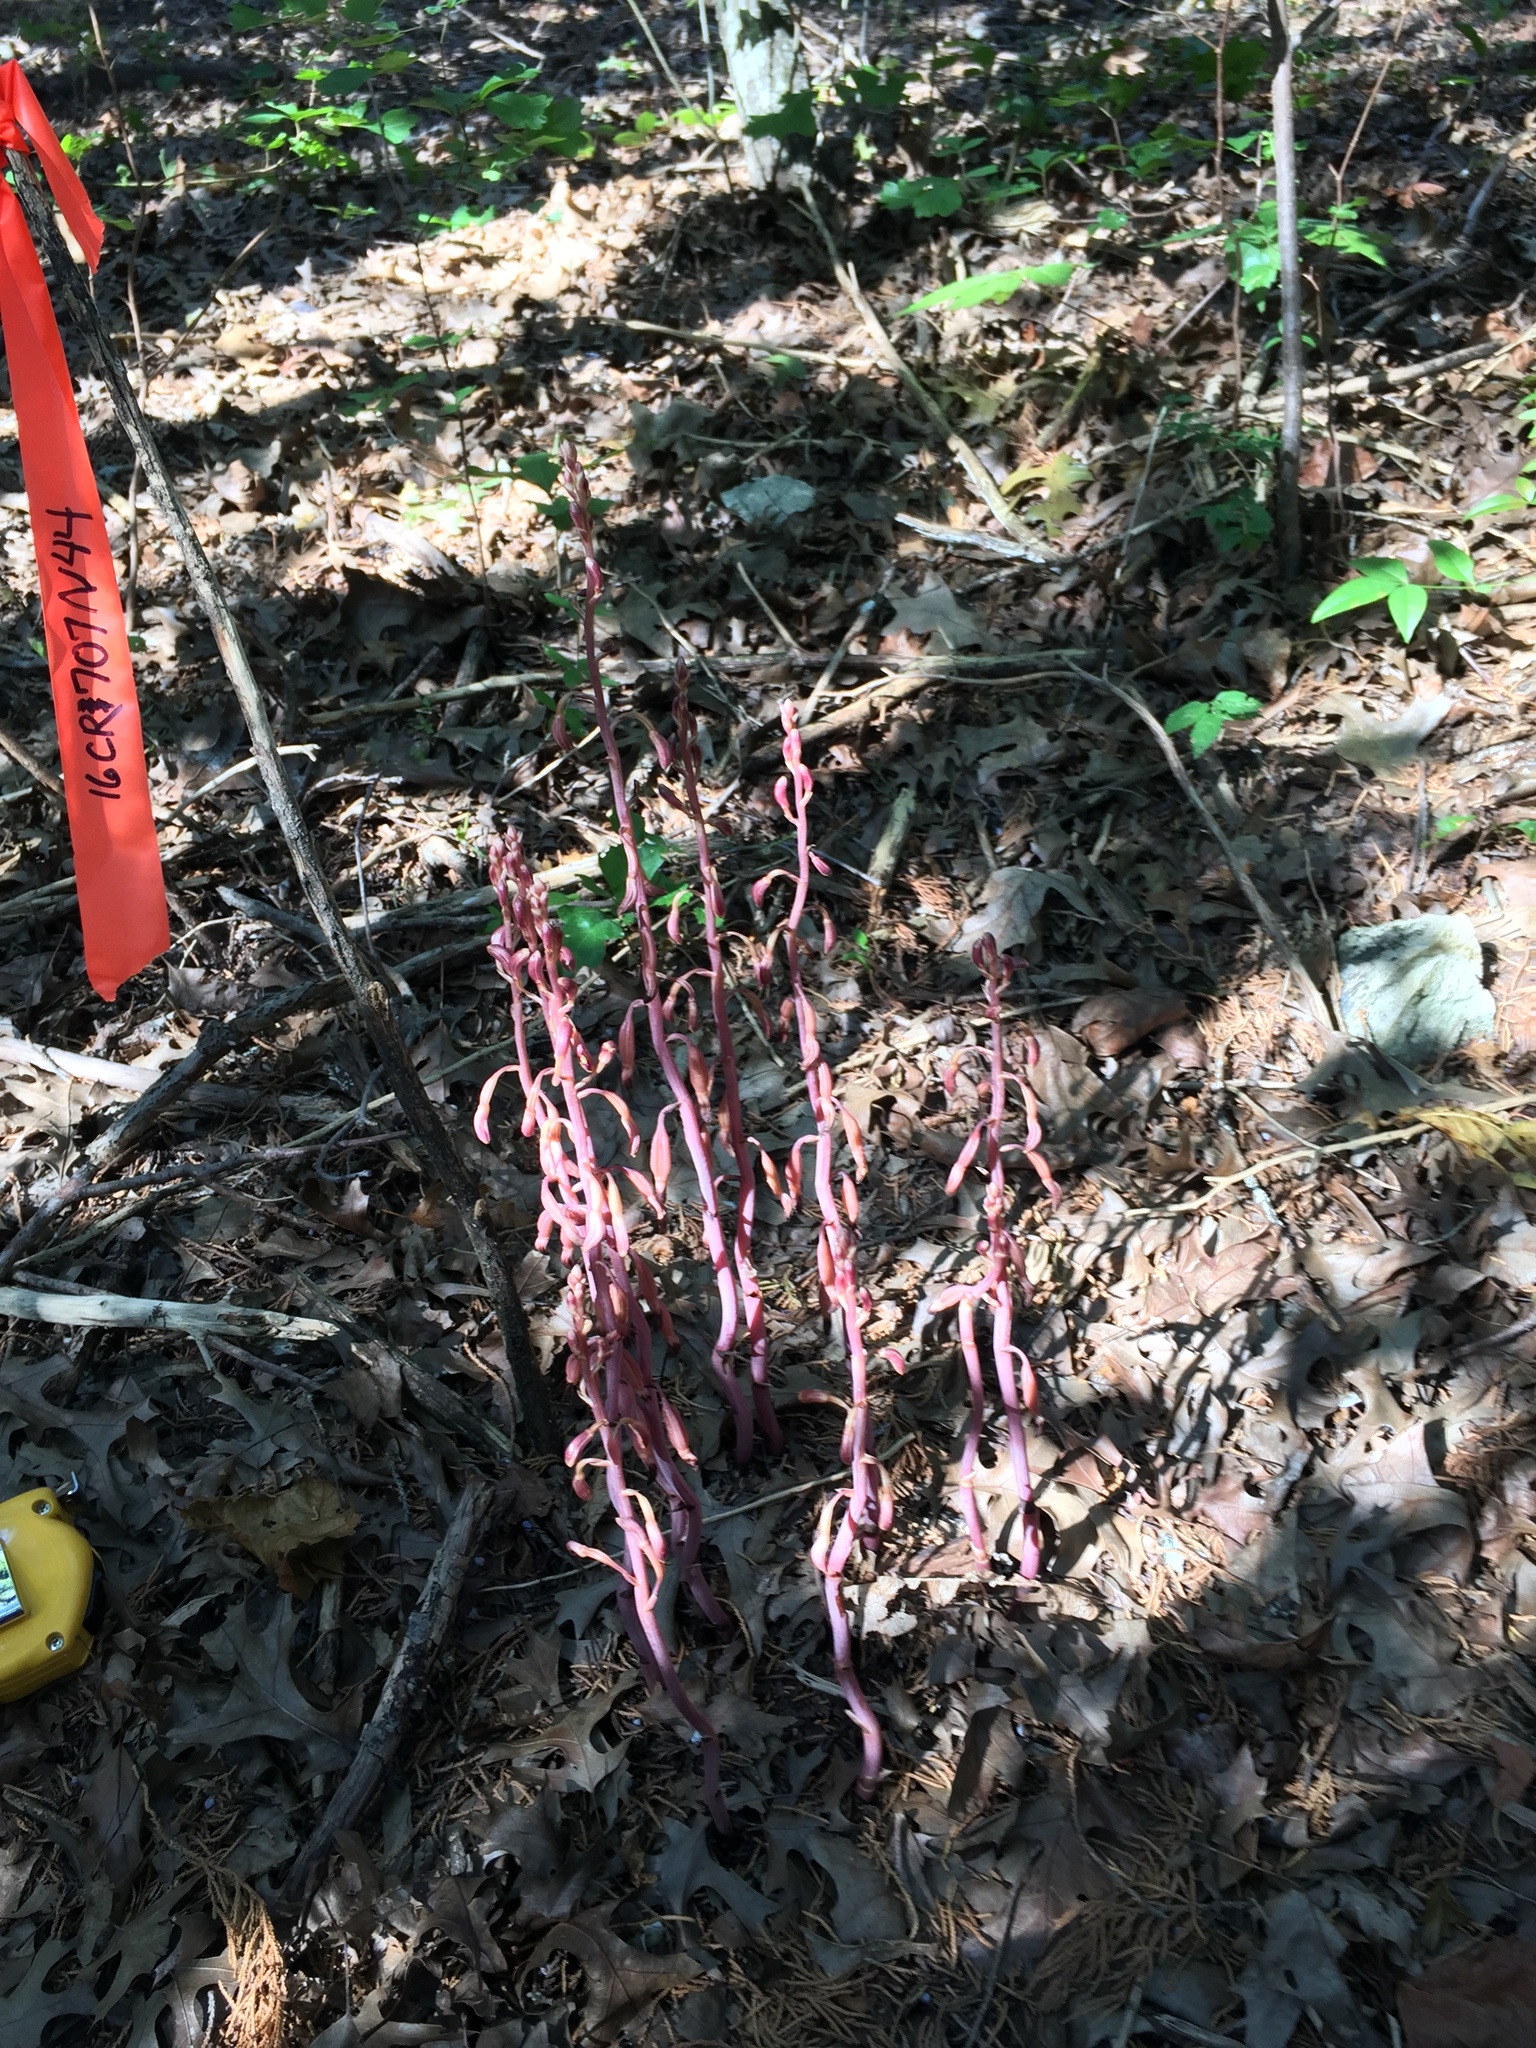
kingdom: Plantae
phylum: Tracheophyta
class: Liliopsida
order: Asparagales
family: Orchidaceae
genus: Bletia
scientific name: Bletia nitida
